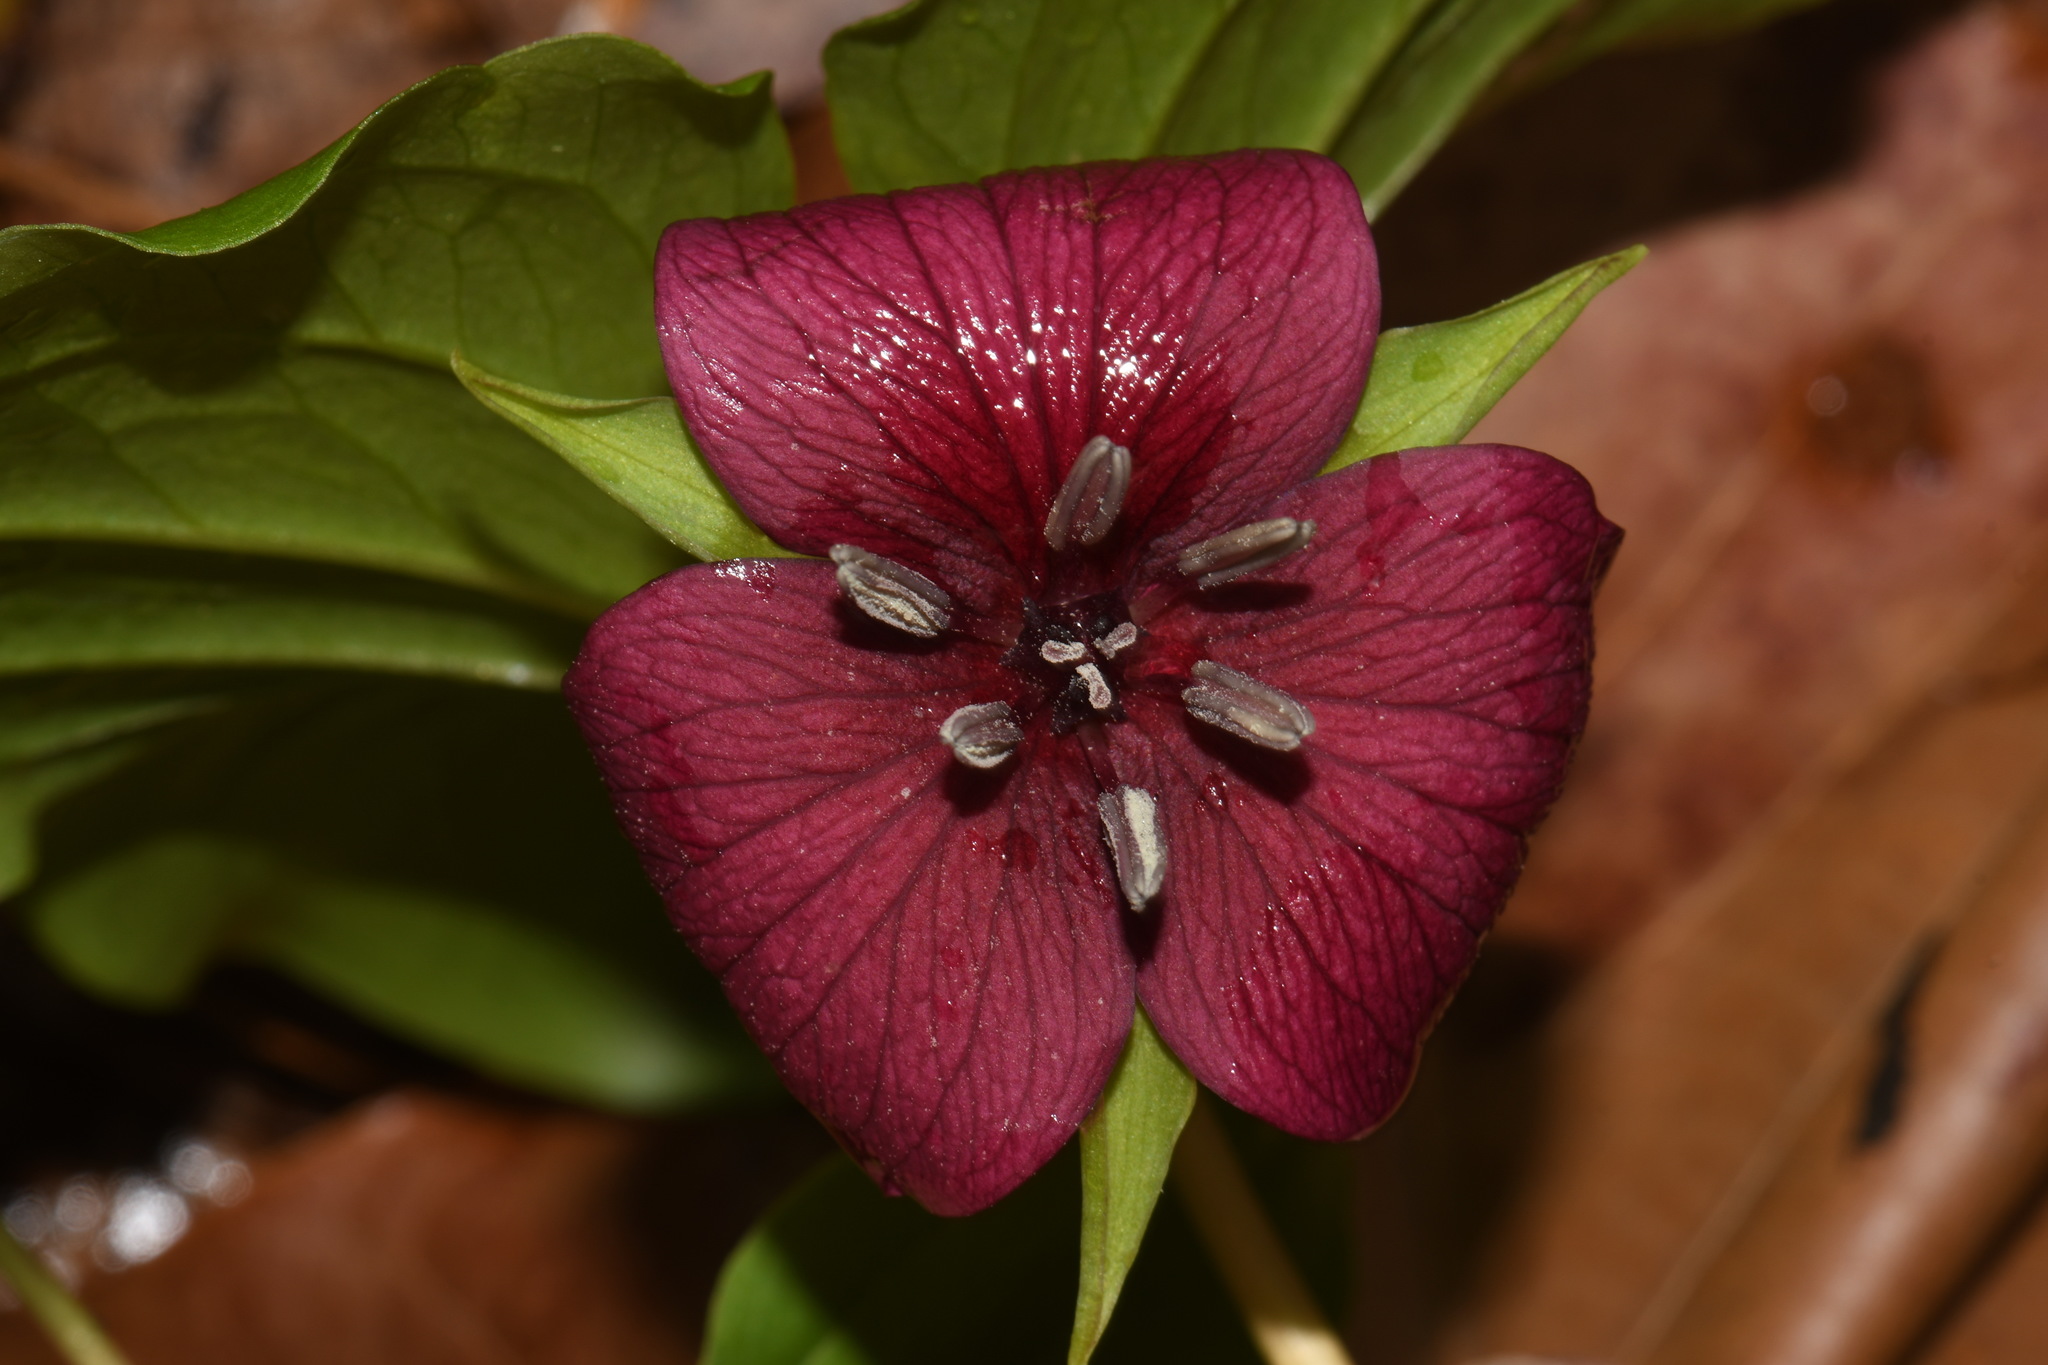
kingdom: Plantae
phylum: Tracheophyta
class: Liliopsida
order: Liliales
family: Melanthiaceae
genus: Trillium
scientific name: Trillium vaseyi
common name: Sweet trillium
